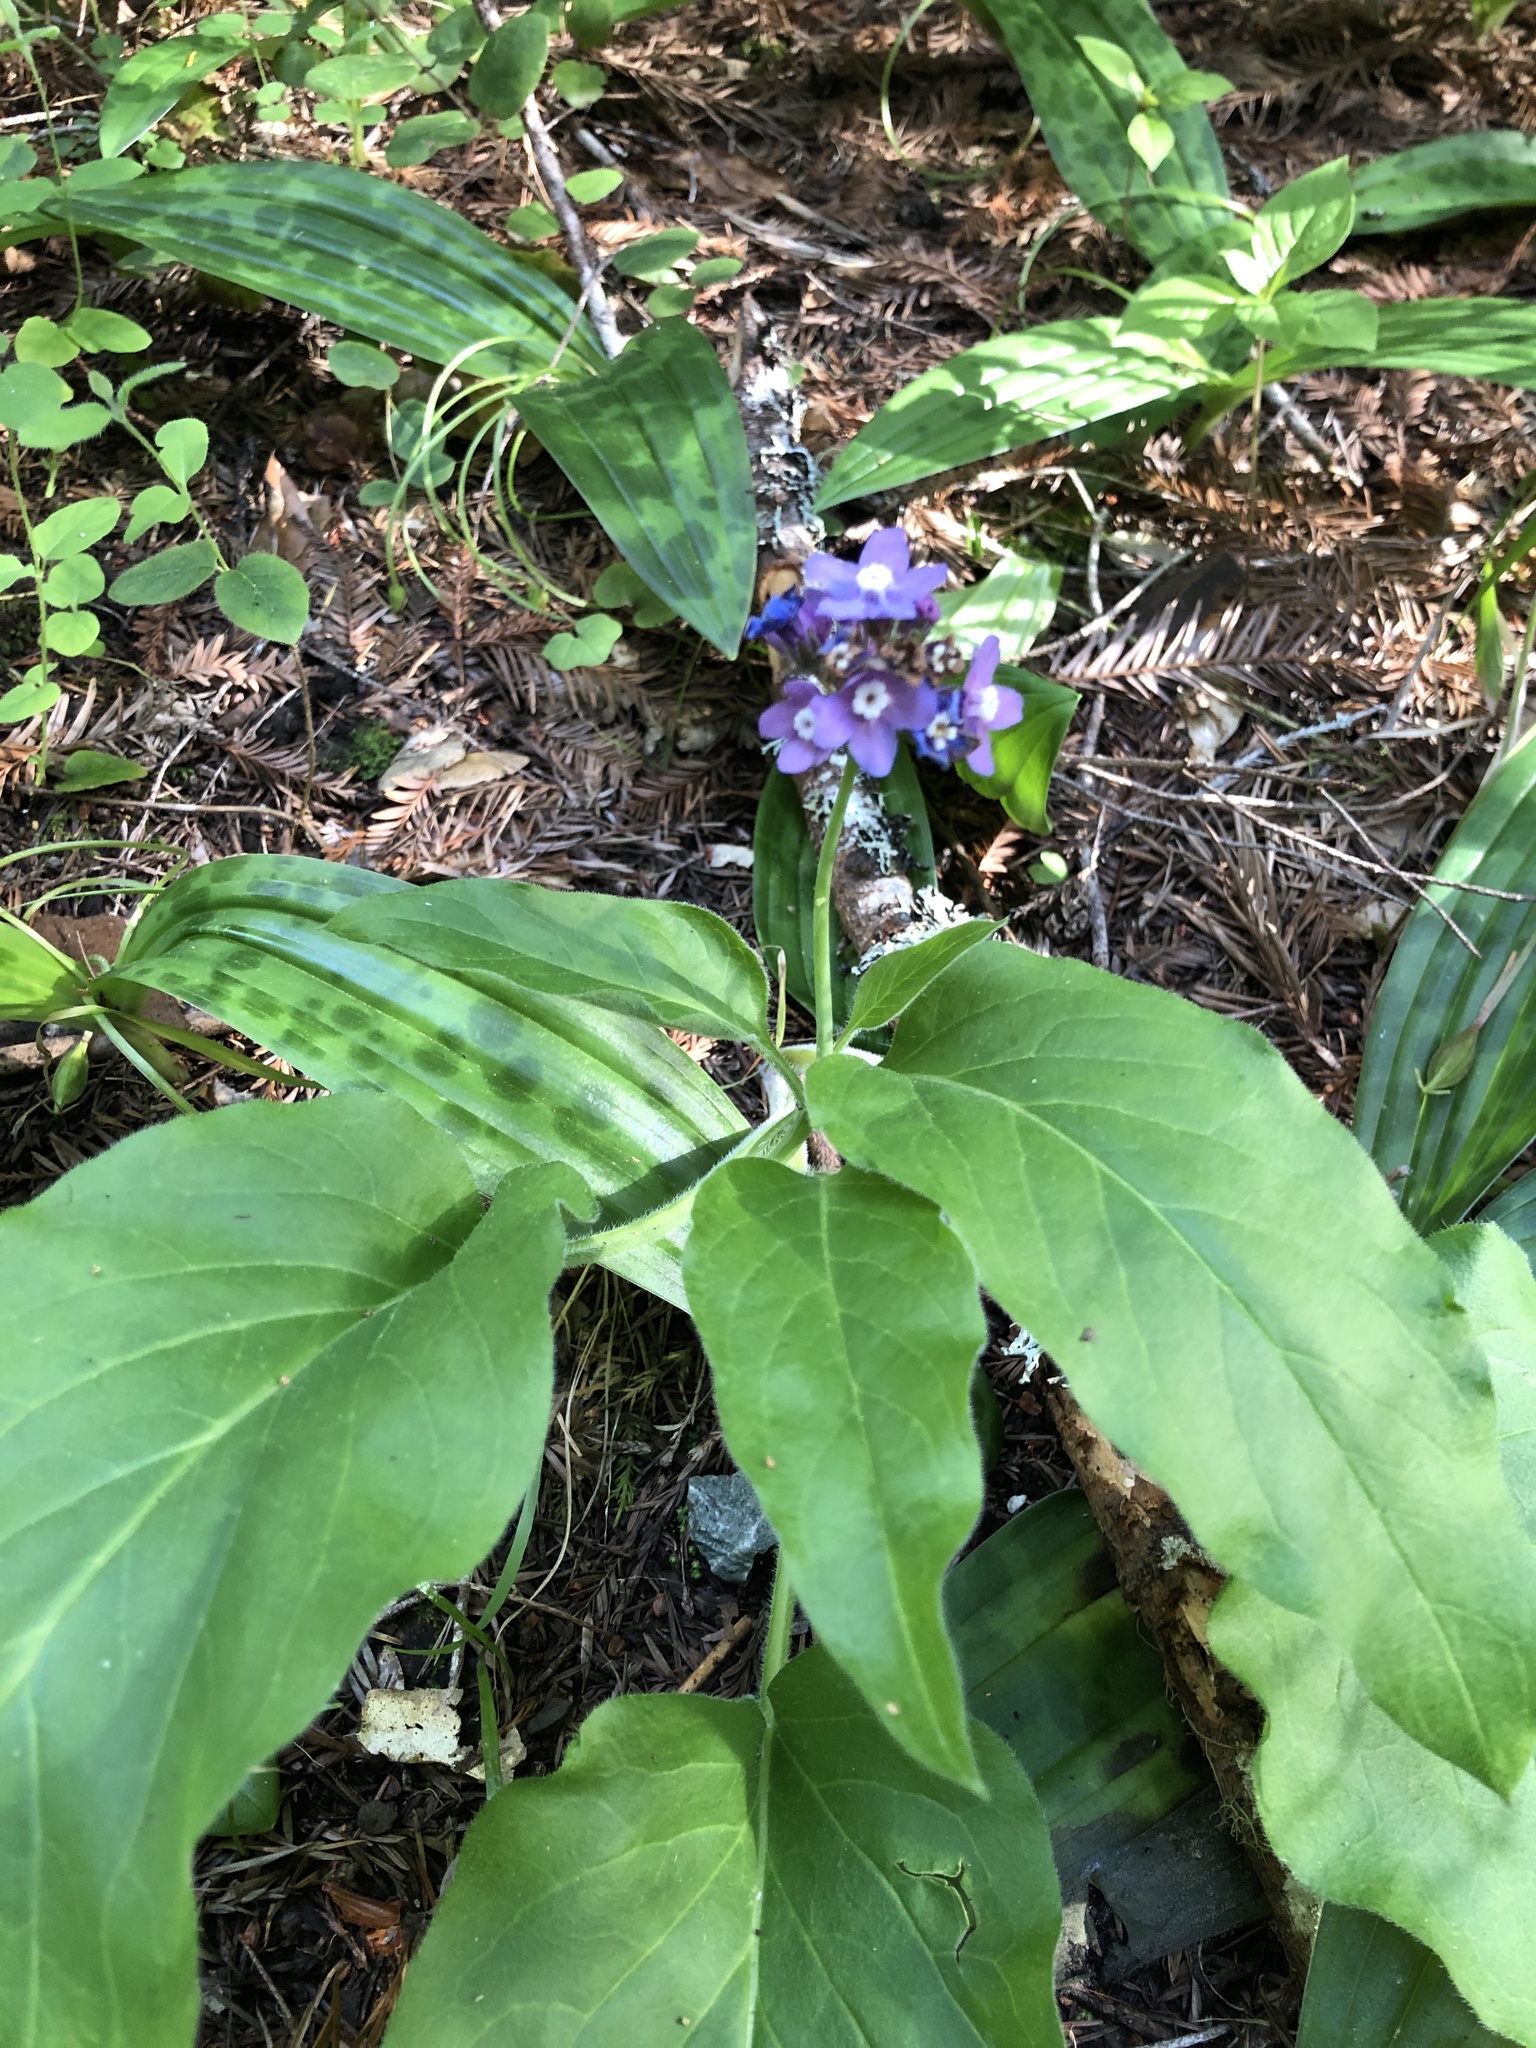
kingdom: Plantae
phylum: Tracheophyta
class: Magnoliopsida
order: Boraginales
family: Boraginaceae
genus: Adelinia
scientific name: Adelinia grande
